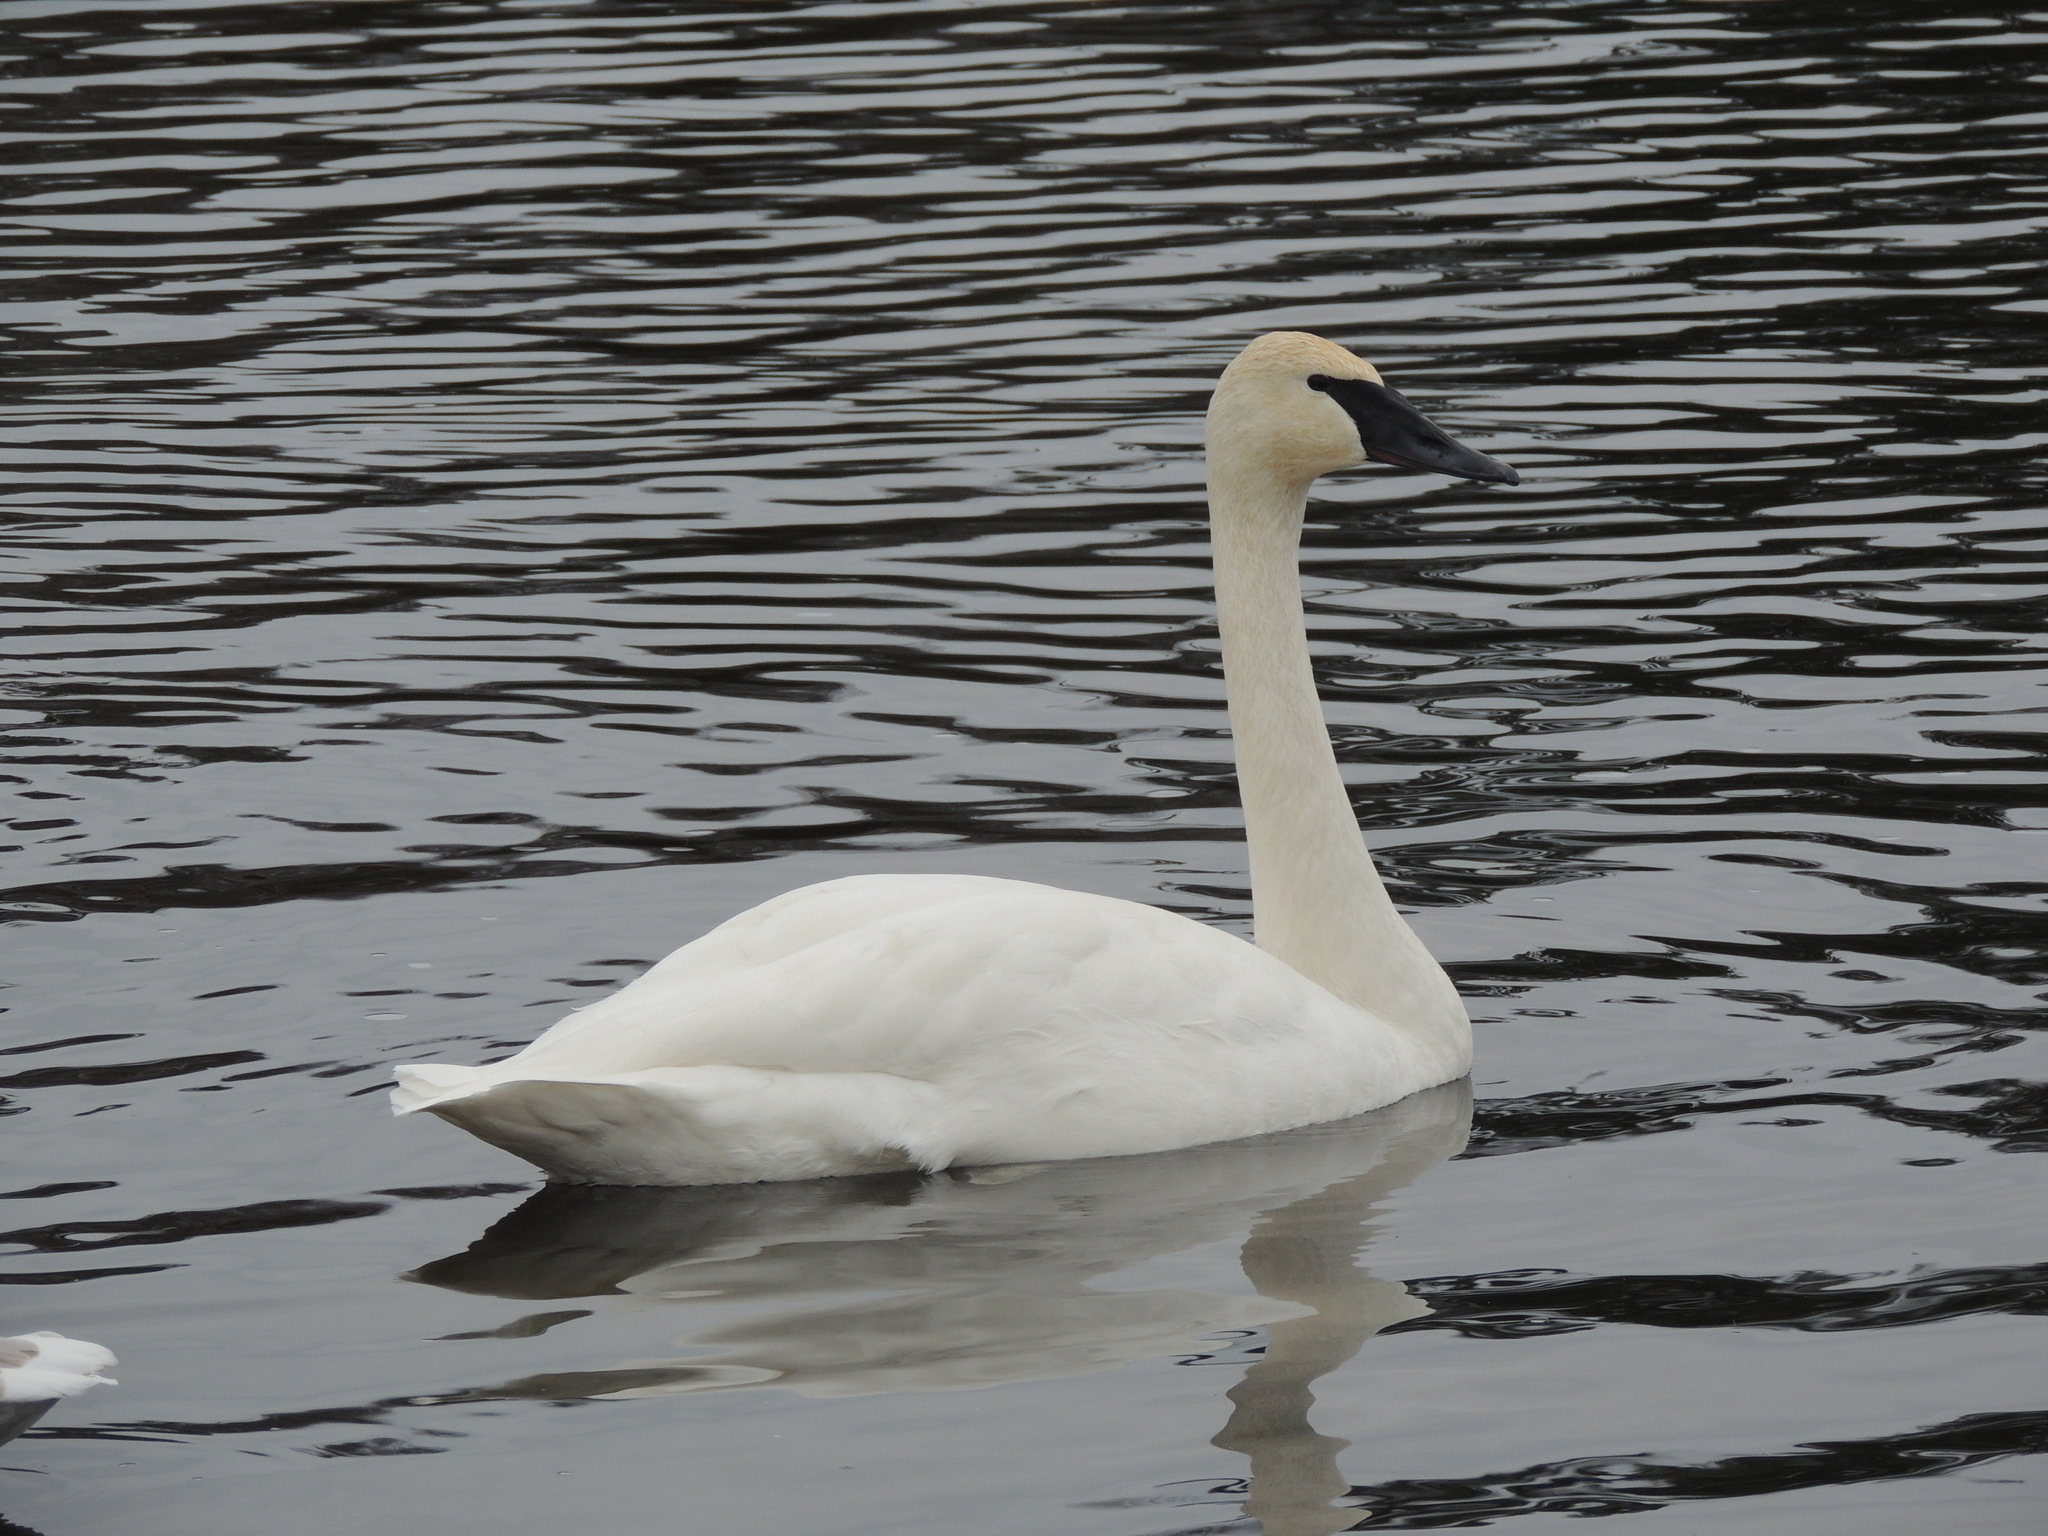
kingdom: Animalia
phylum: Chordata
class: Aves
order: Anseriformes
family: Anatidae
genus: Cygnus
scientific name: Cygnus buccinator
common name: Trumpeter swan
